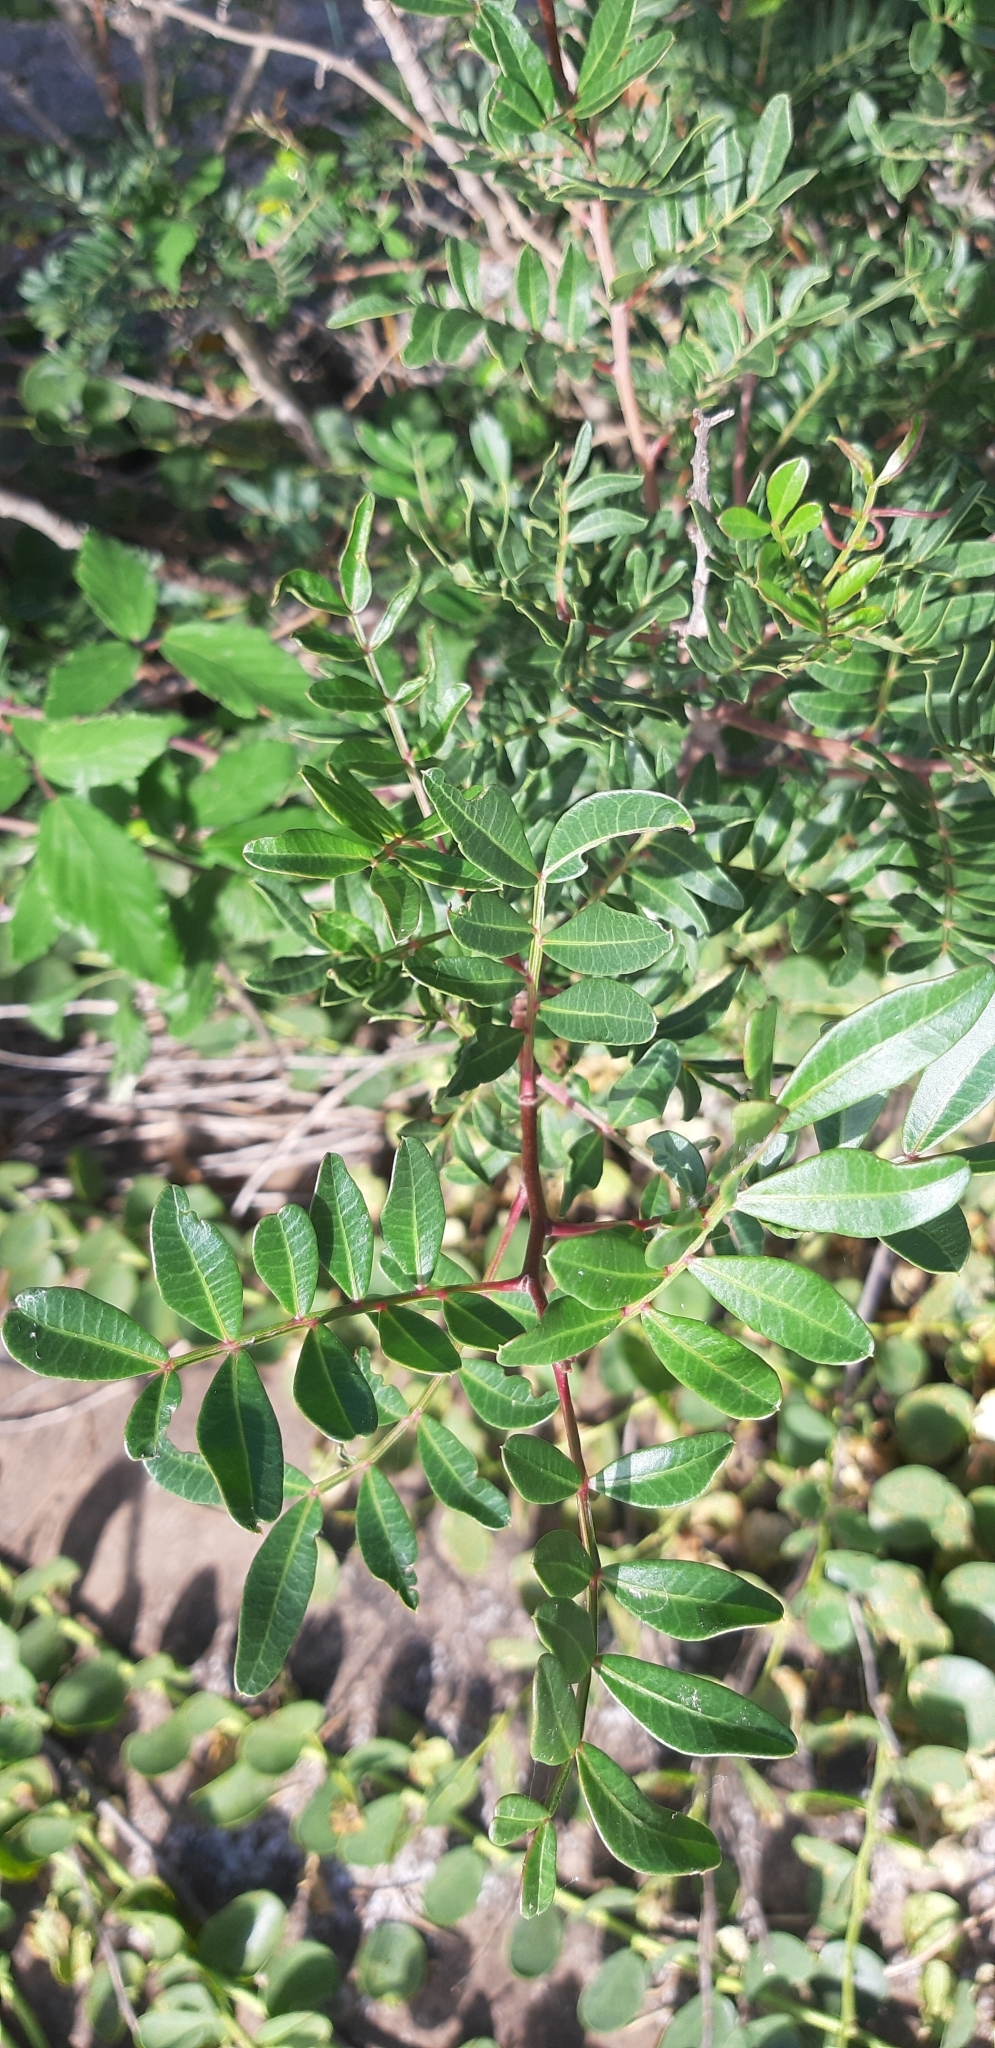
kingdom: Plantae
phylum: Tracheophyta
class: Magnoliopsida
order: Sapindales
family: Anacardiaceae
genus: Pistacia
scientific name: Pistacia lentiscus
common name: Lentisk
